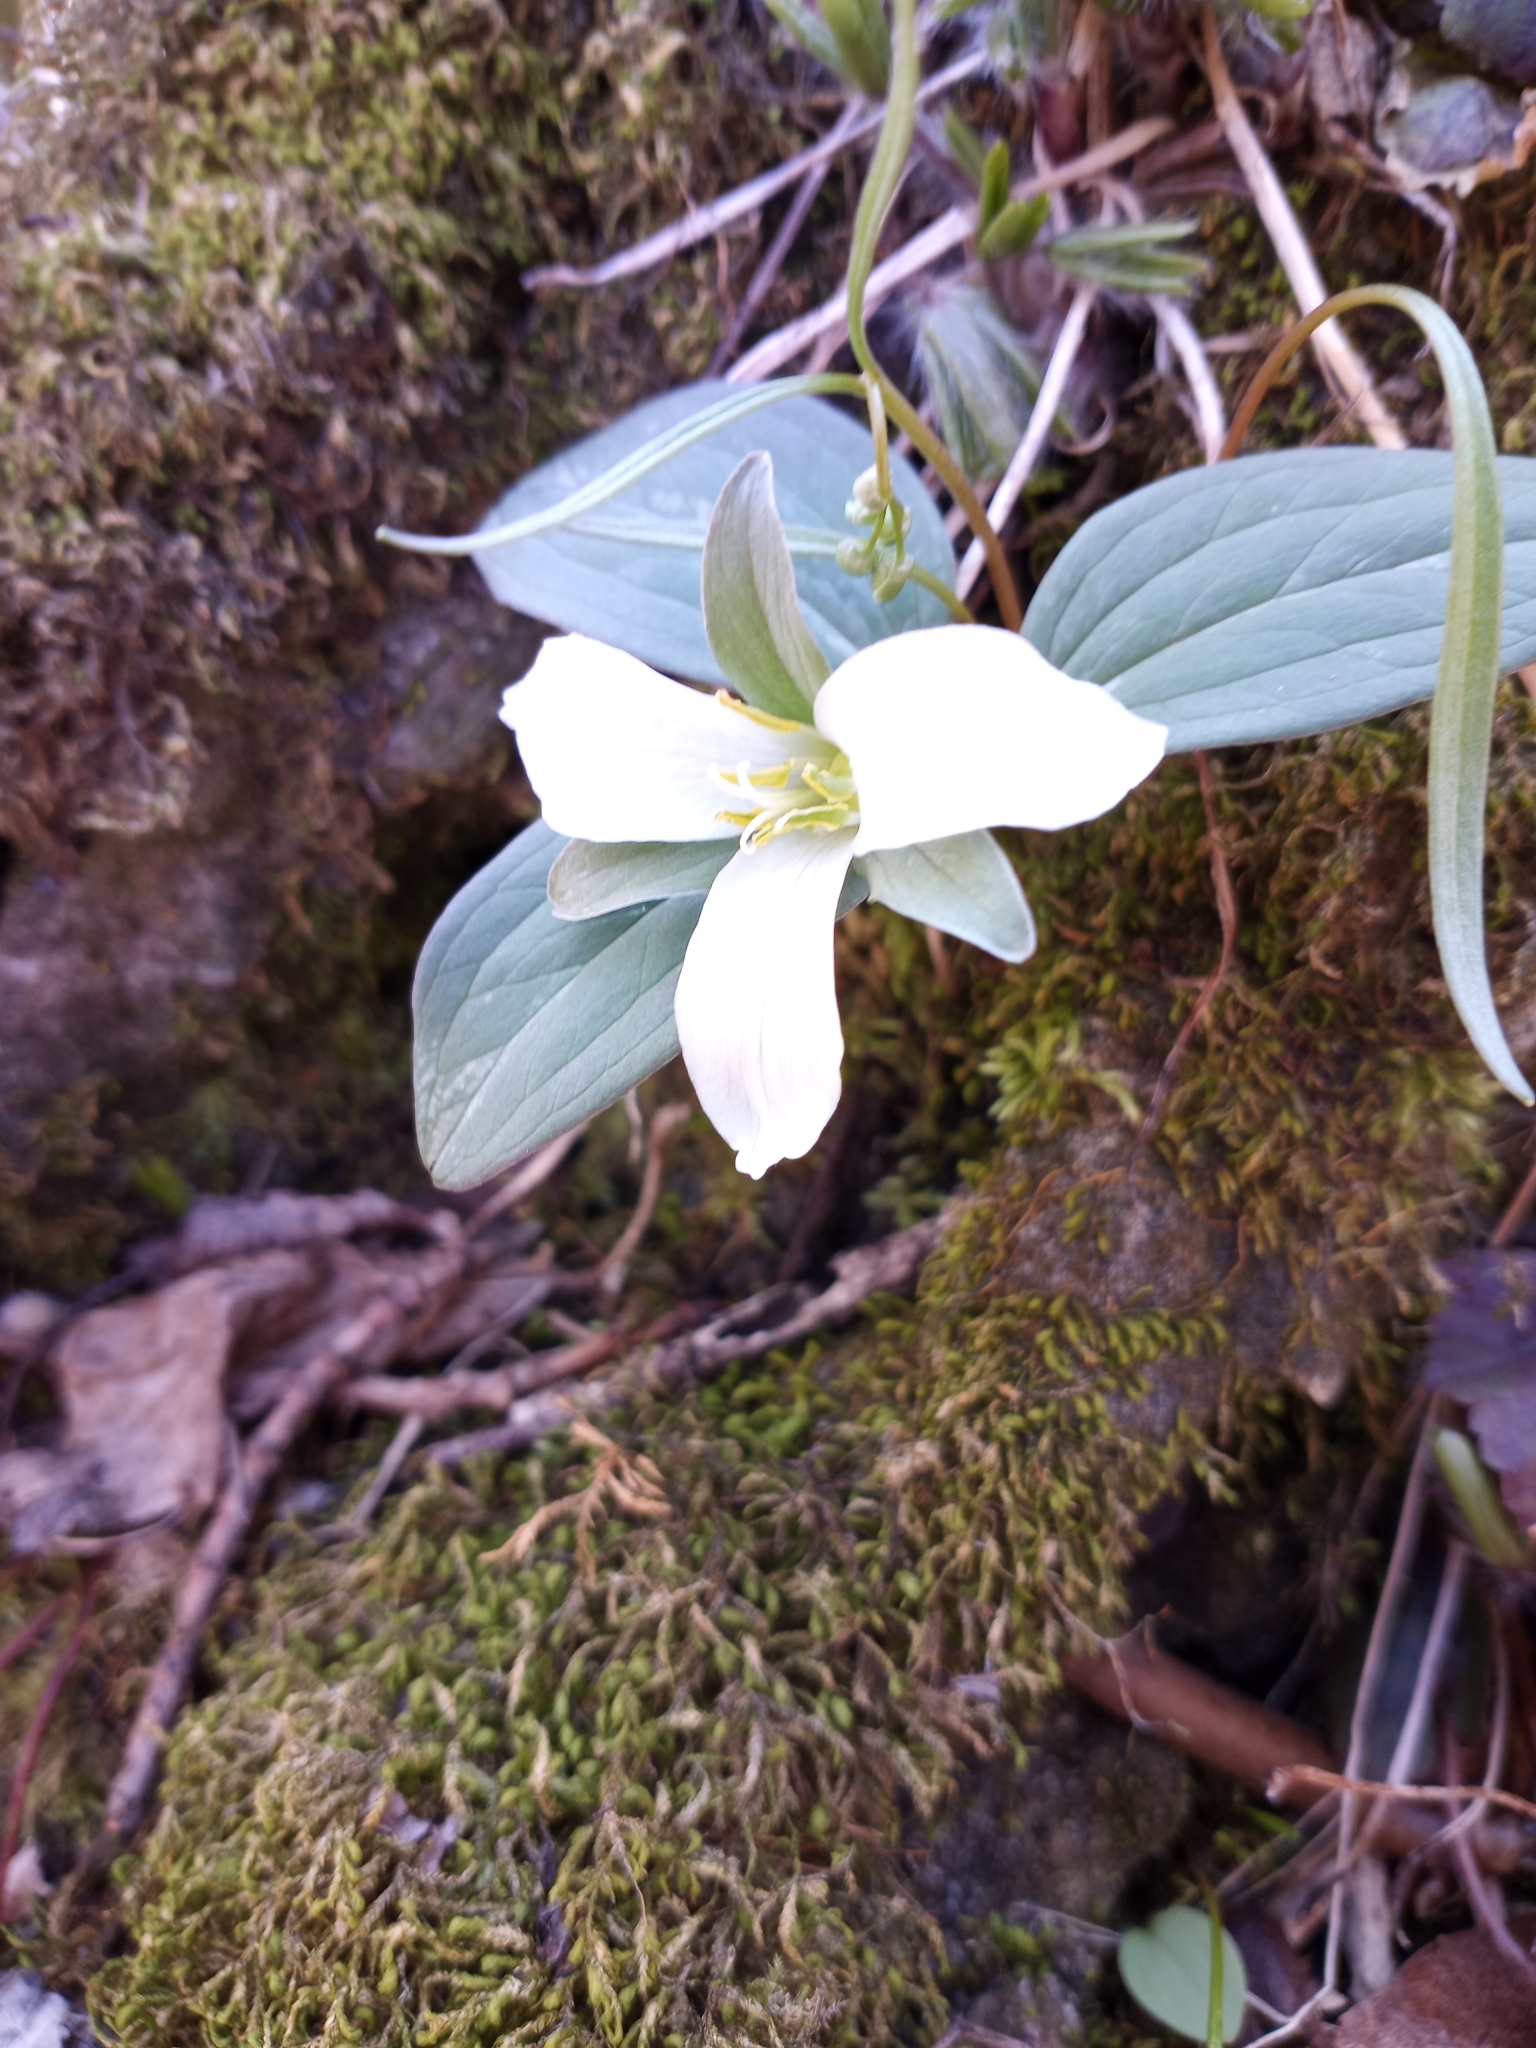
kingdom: Plantae
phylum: Tracheophyta
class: Liliopsida
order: Liliales
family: Melanthiaceae
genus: Trillium
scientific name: Trillium nivale
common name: Dwarf white trillium
